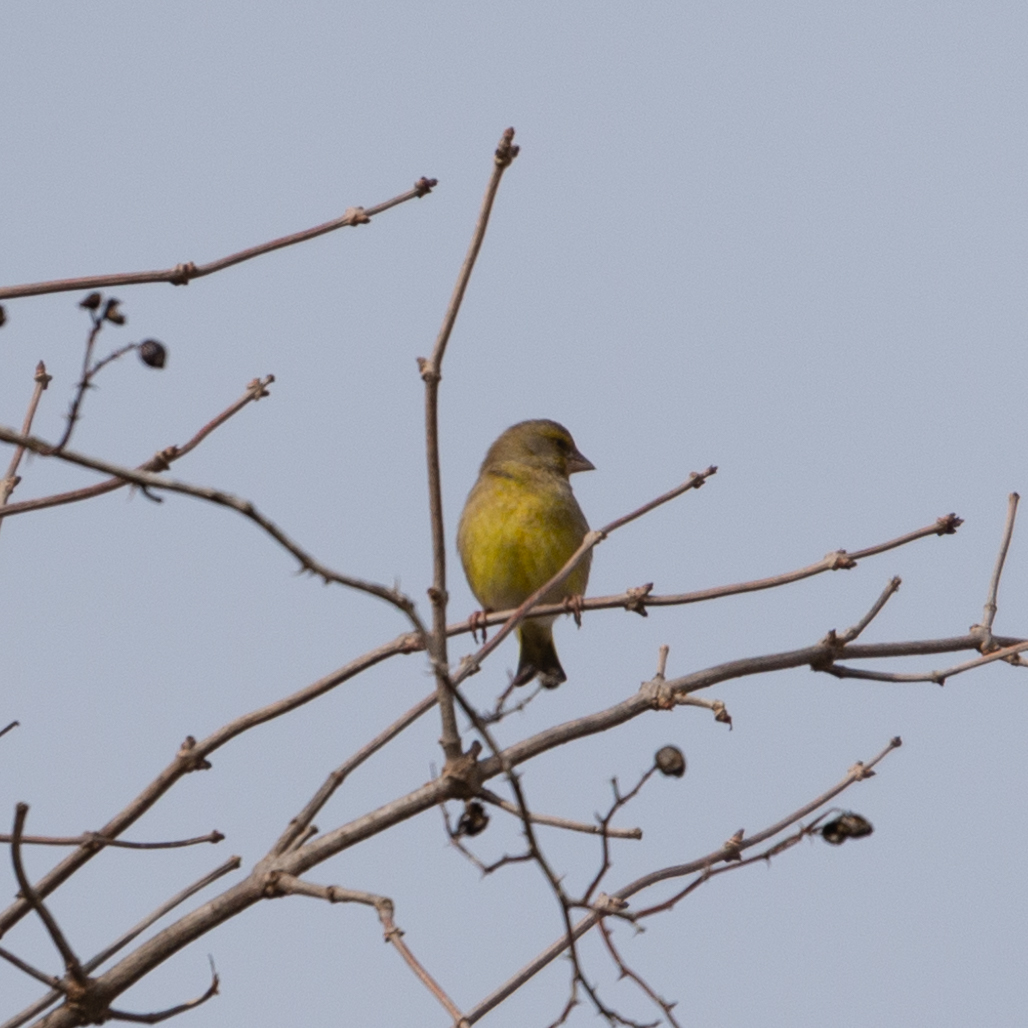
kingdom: Plantae
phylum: Tracheophyta
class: Liliopsida
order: Poales
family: Poaceae
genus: Chloris
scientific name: Chloris chloris
